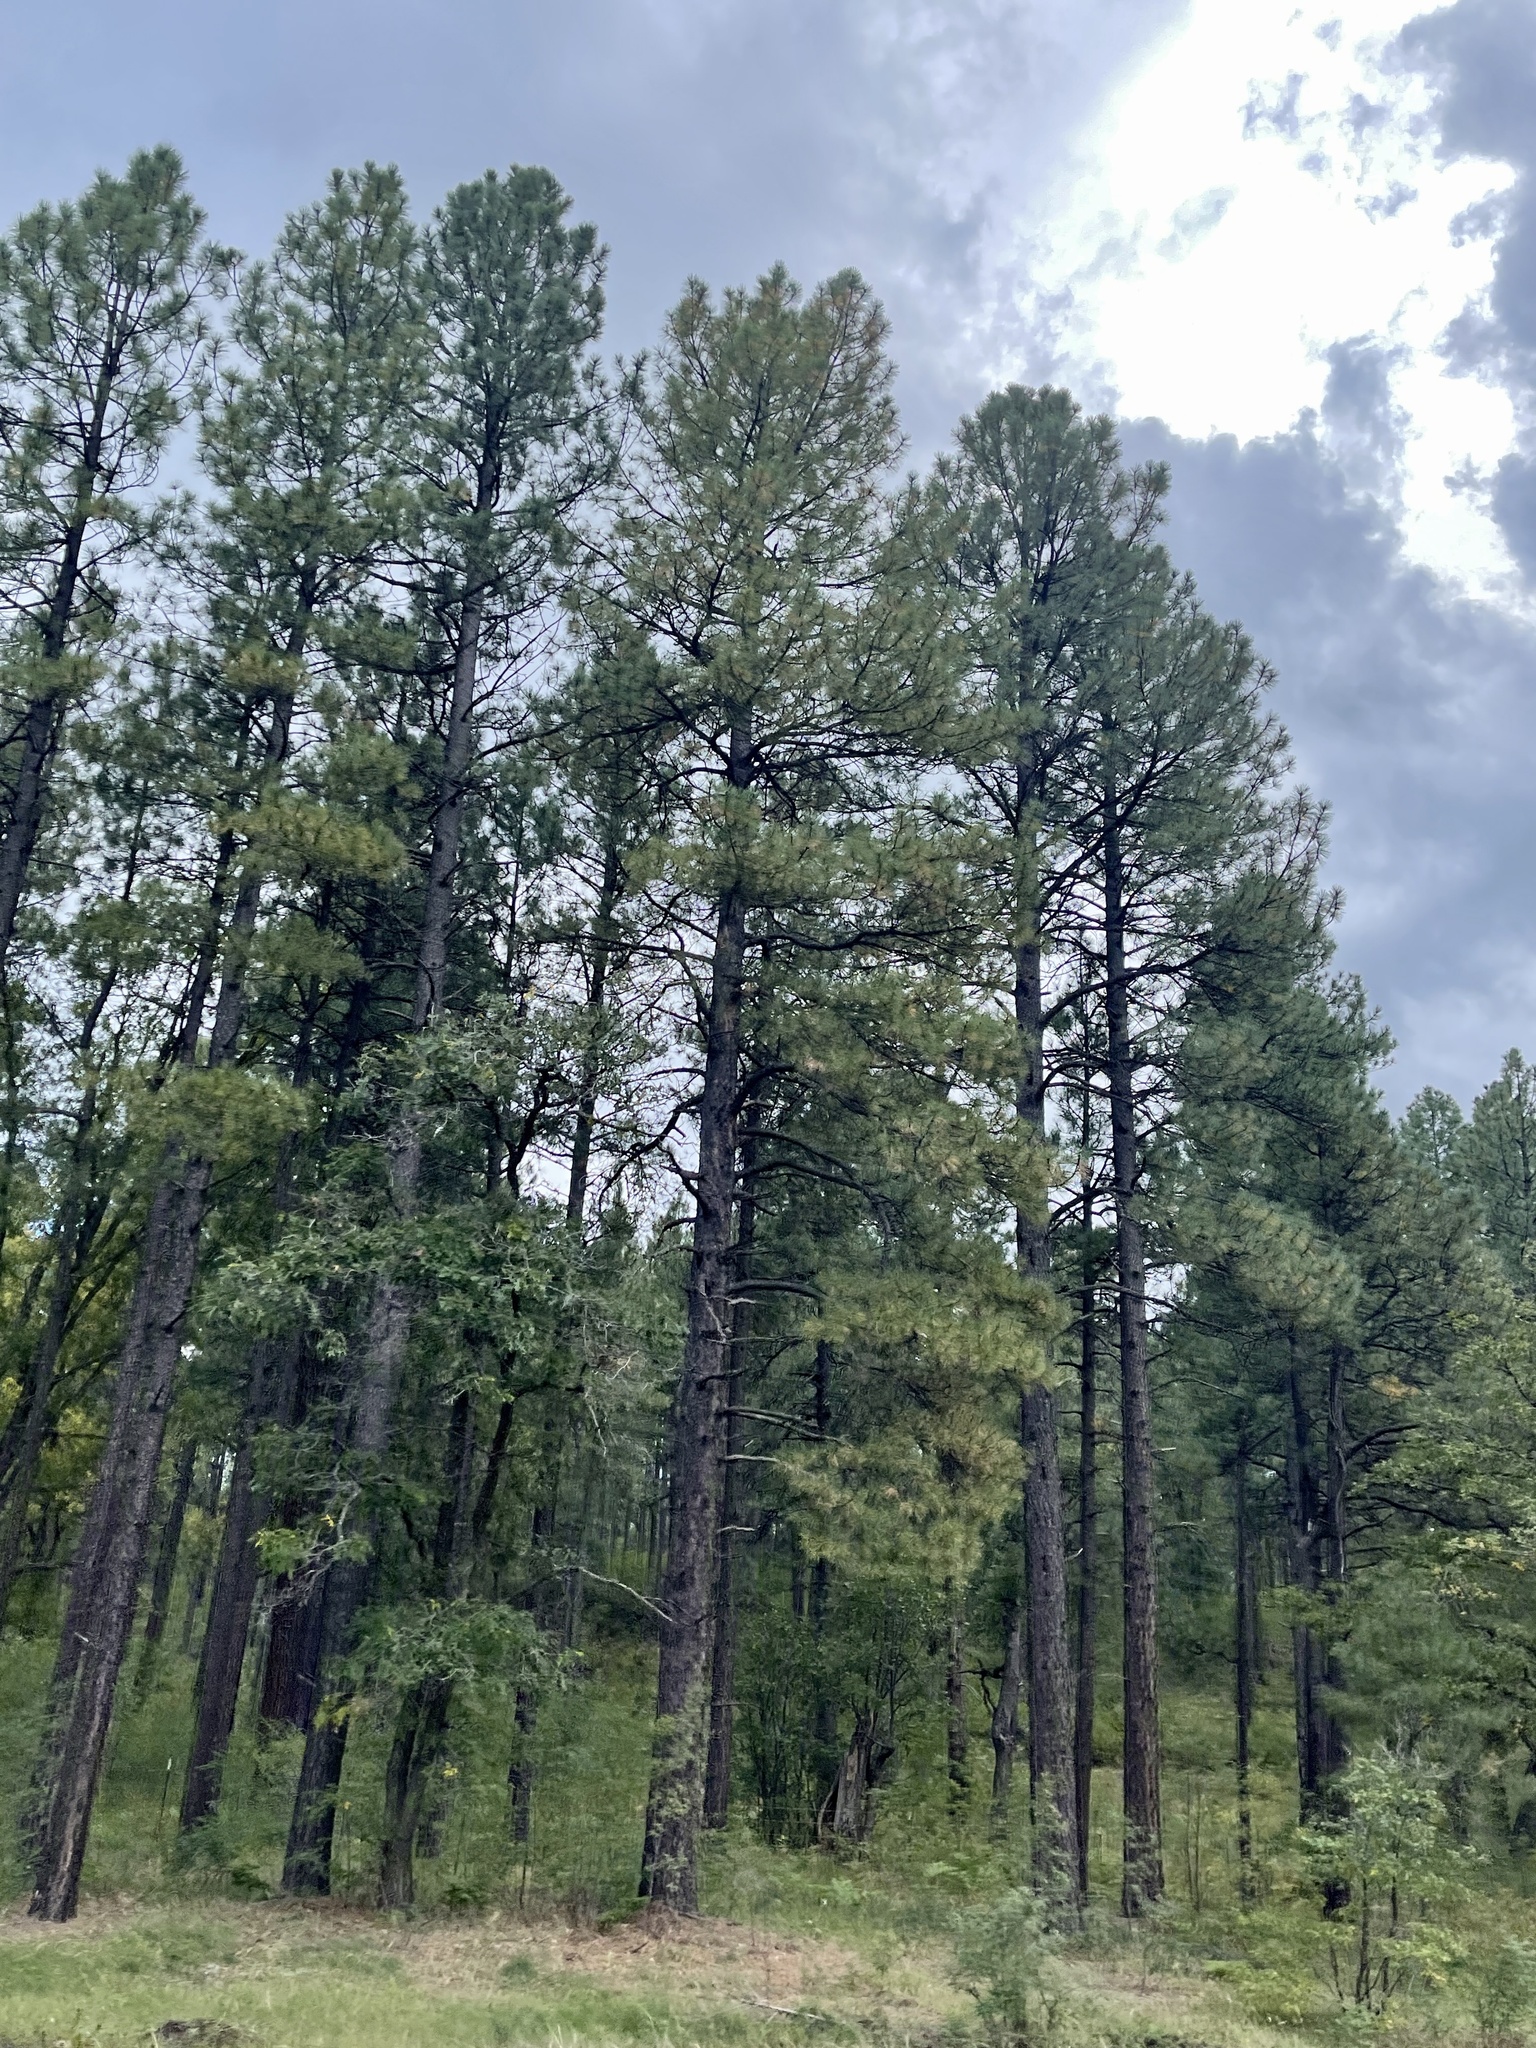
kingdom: Plantae
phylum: Tracheophyta
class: Pinopsida
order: Pinales
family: Pinaceae
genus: Pinus
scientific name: Pinus ponderosa
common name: Western yellow-pine
